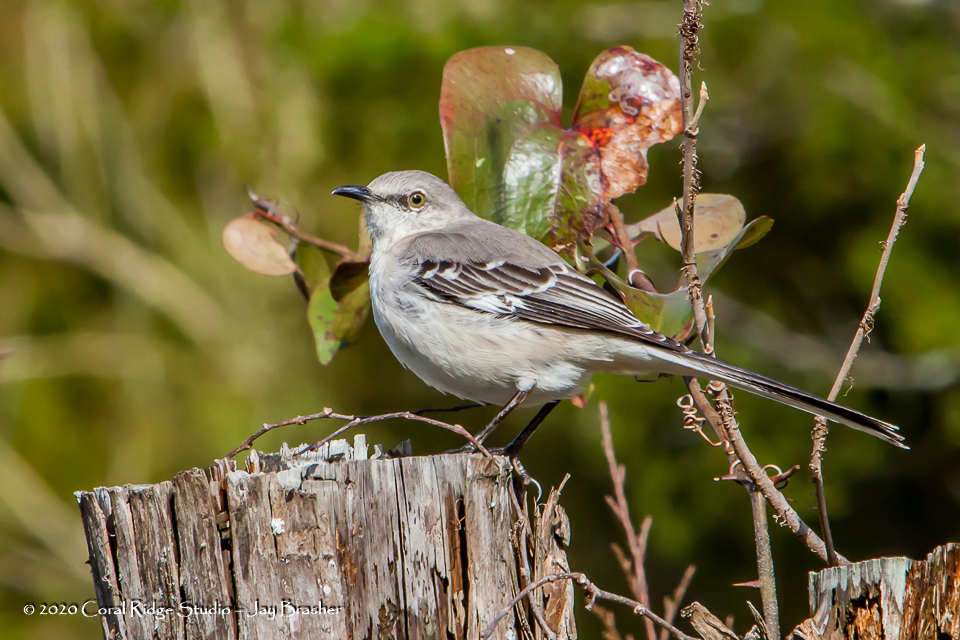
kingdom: Animalia
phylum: Chordata
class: Aves
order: Passeriformes
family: Mimidae
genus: Mimus
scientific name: Mimus polyglottos
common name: Northern mockingbird
